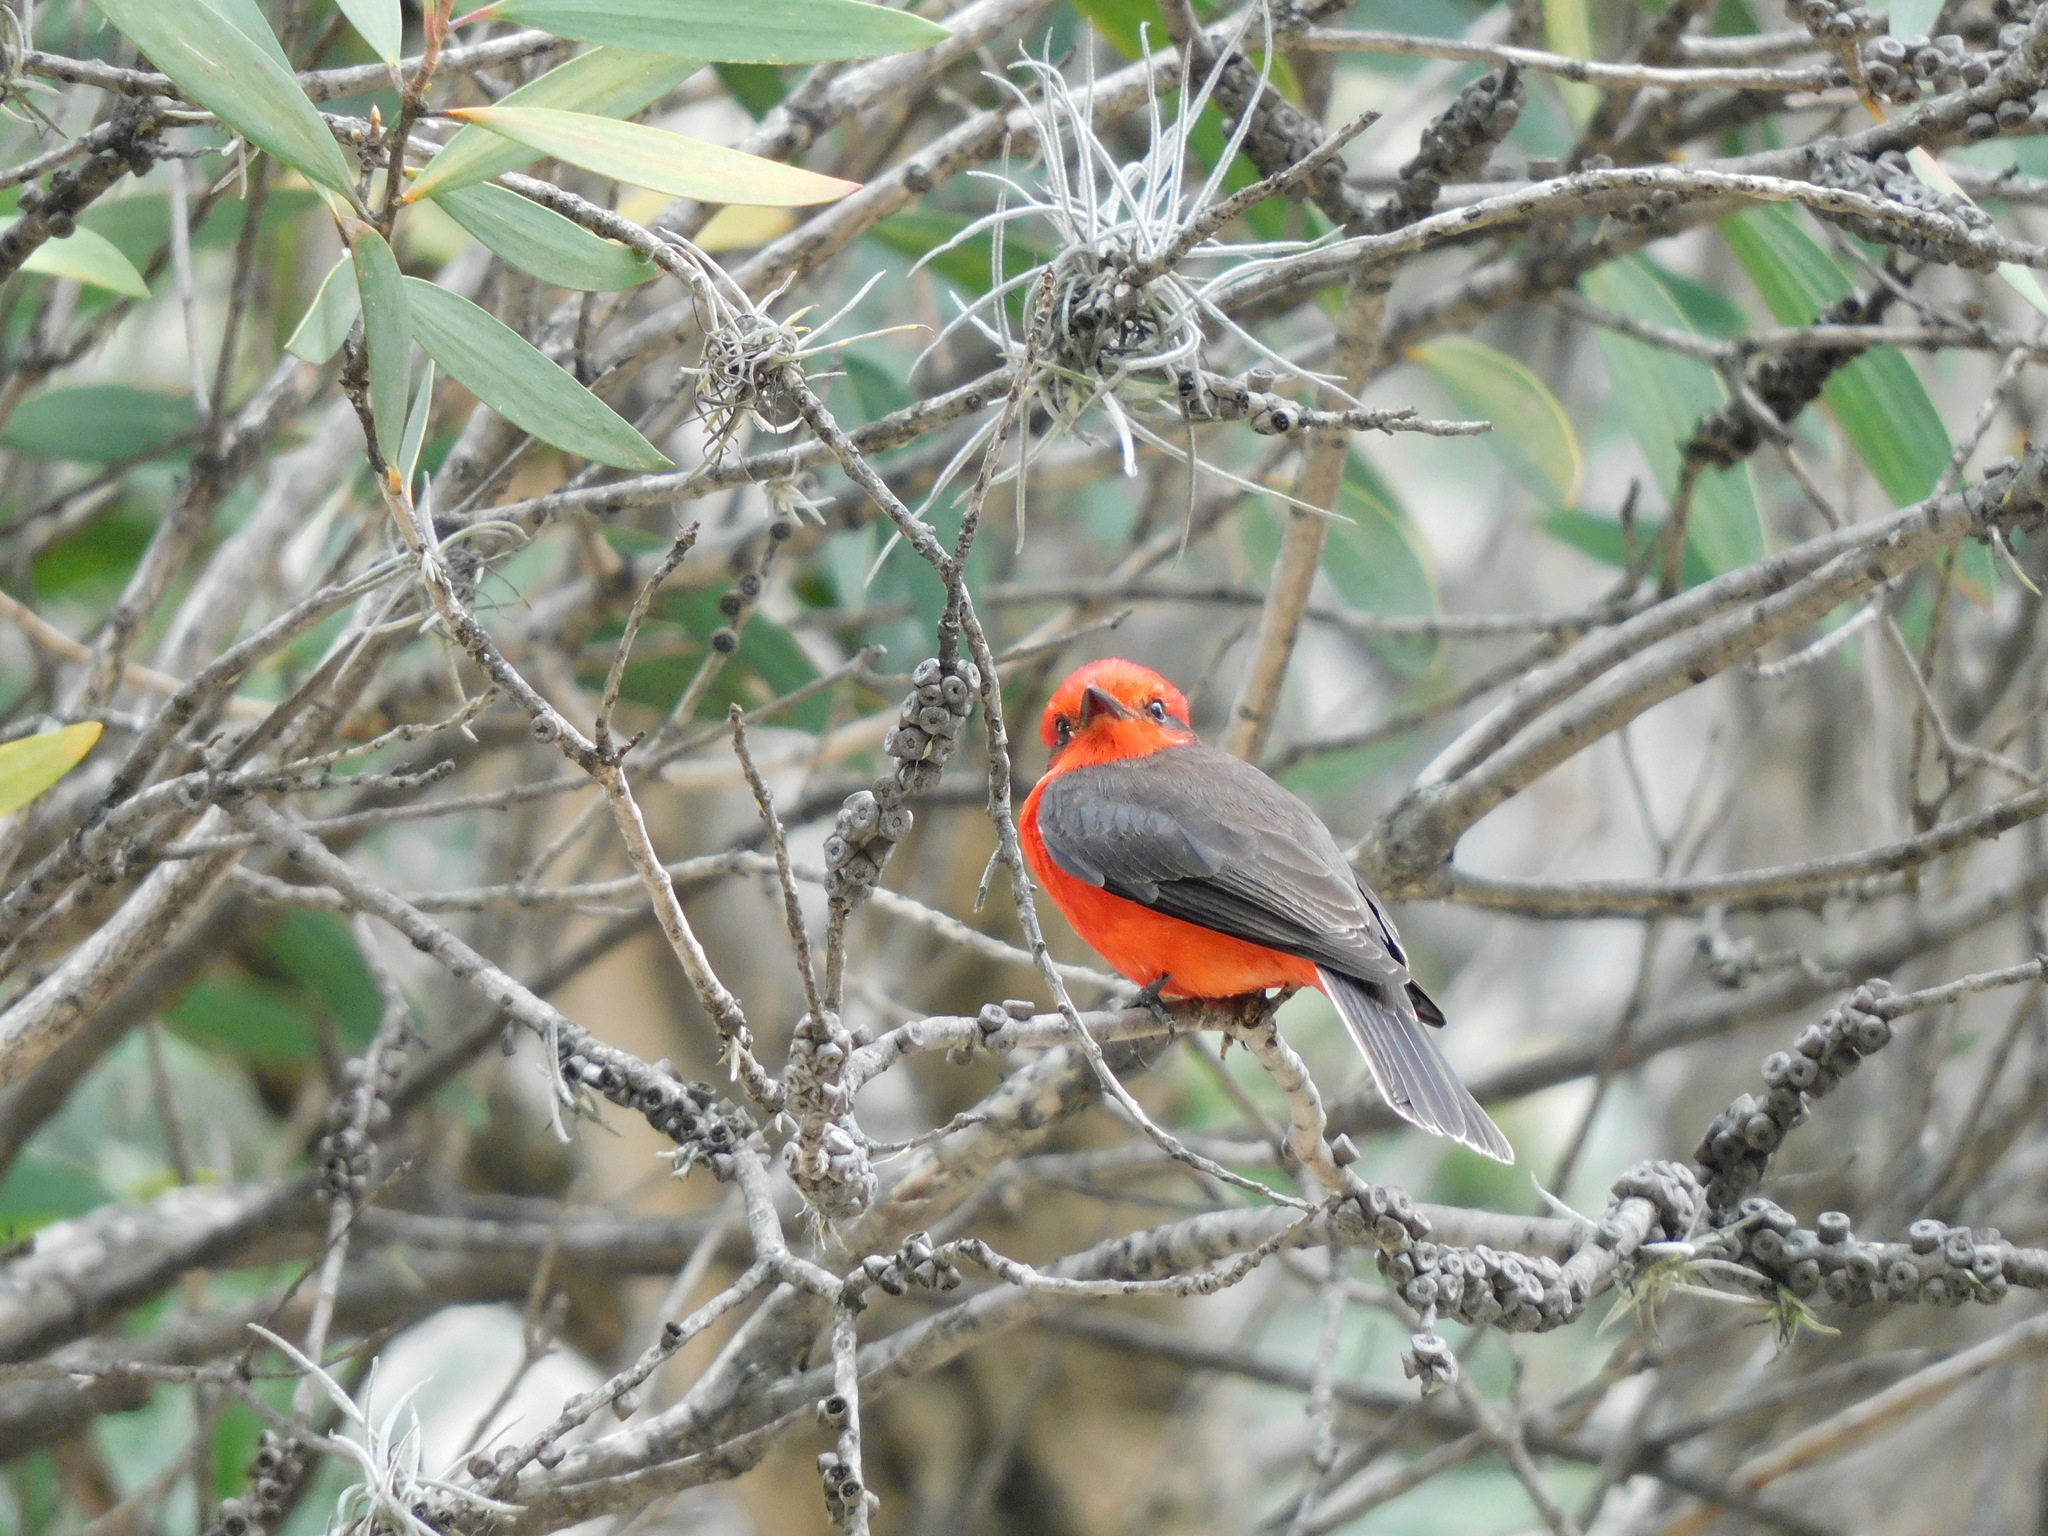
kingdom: Animalia
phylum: Chordata
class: Aves
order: Passeriformes
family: Tyrannidae
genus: Pyrocephalus
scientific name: Pyrocephalus rubinus
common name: Vermilion flycatcher
